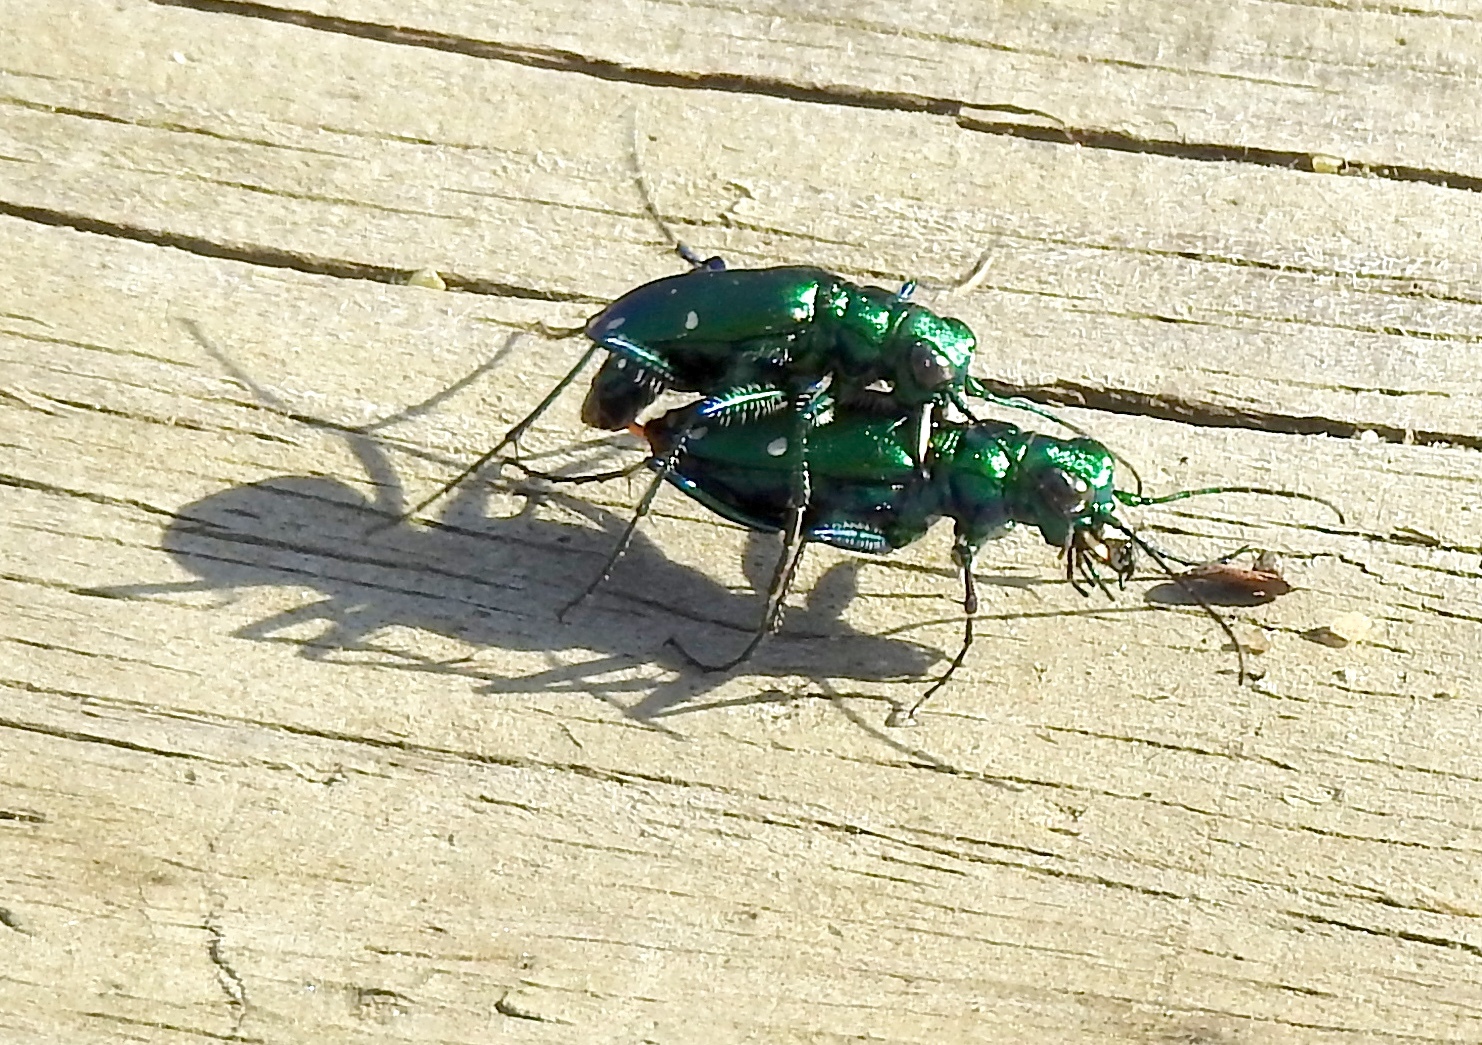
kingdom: Animalia
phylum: Arthropoda
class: Insecta
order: Coleoptera
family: Carabidae
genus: Cicindela
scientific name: Cicindela sexguttata
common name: Six-spotted tiger beetle
